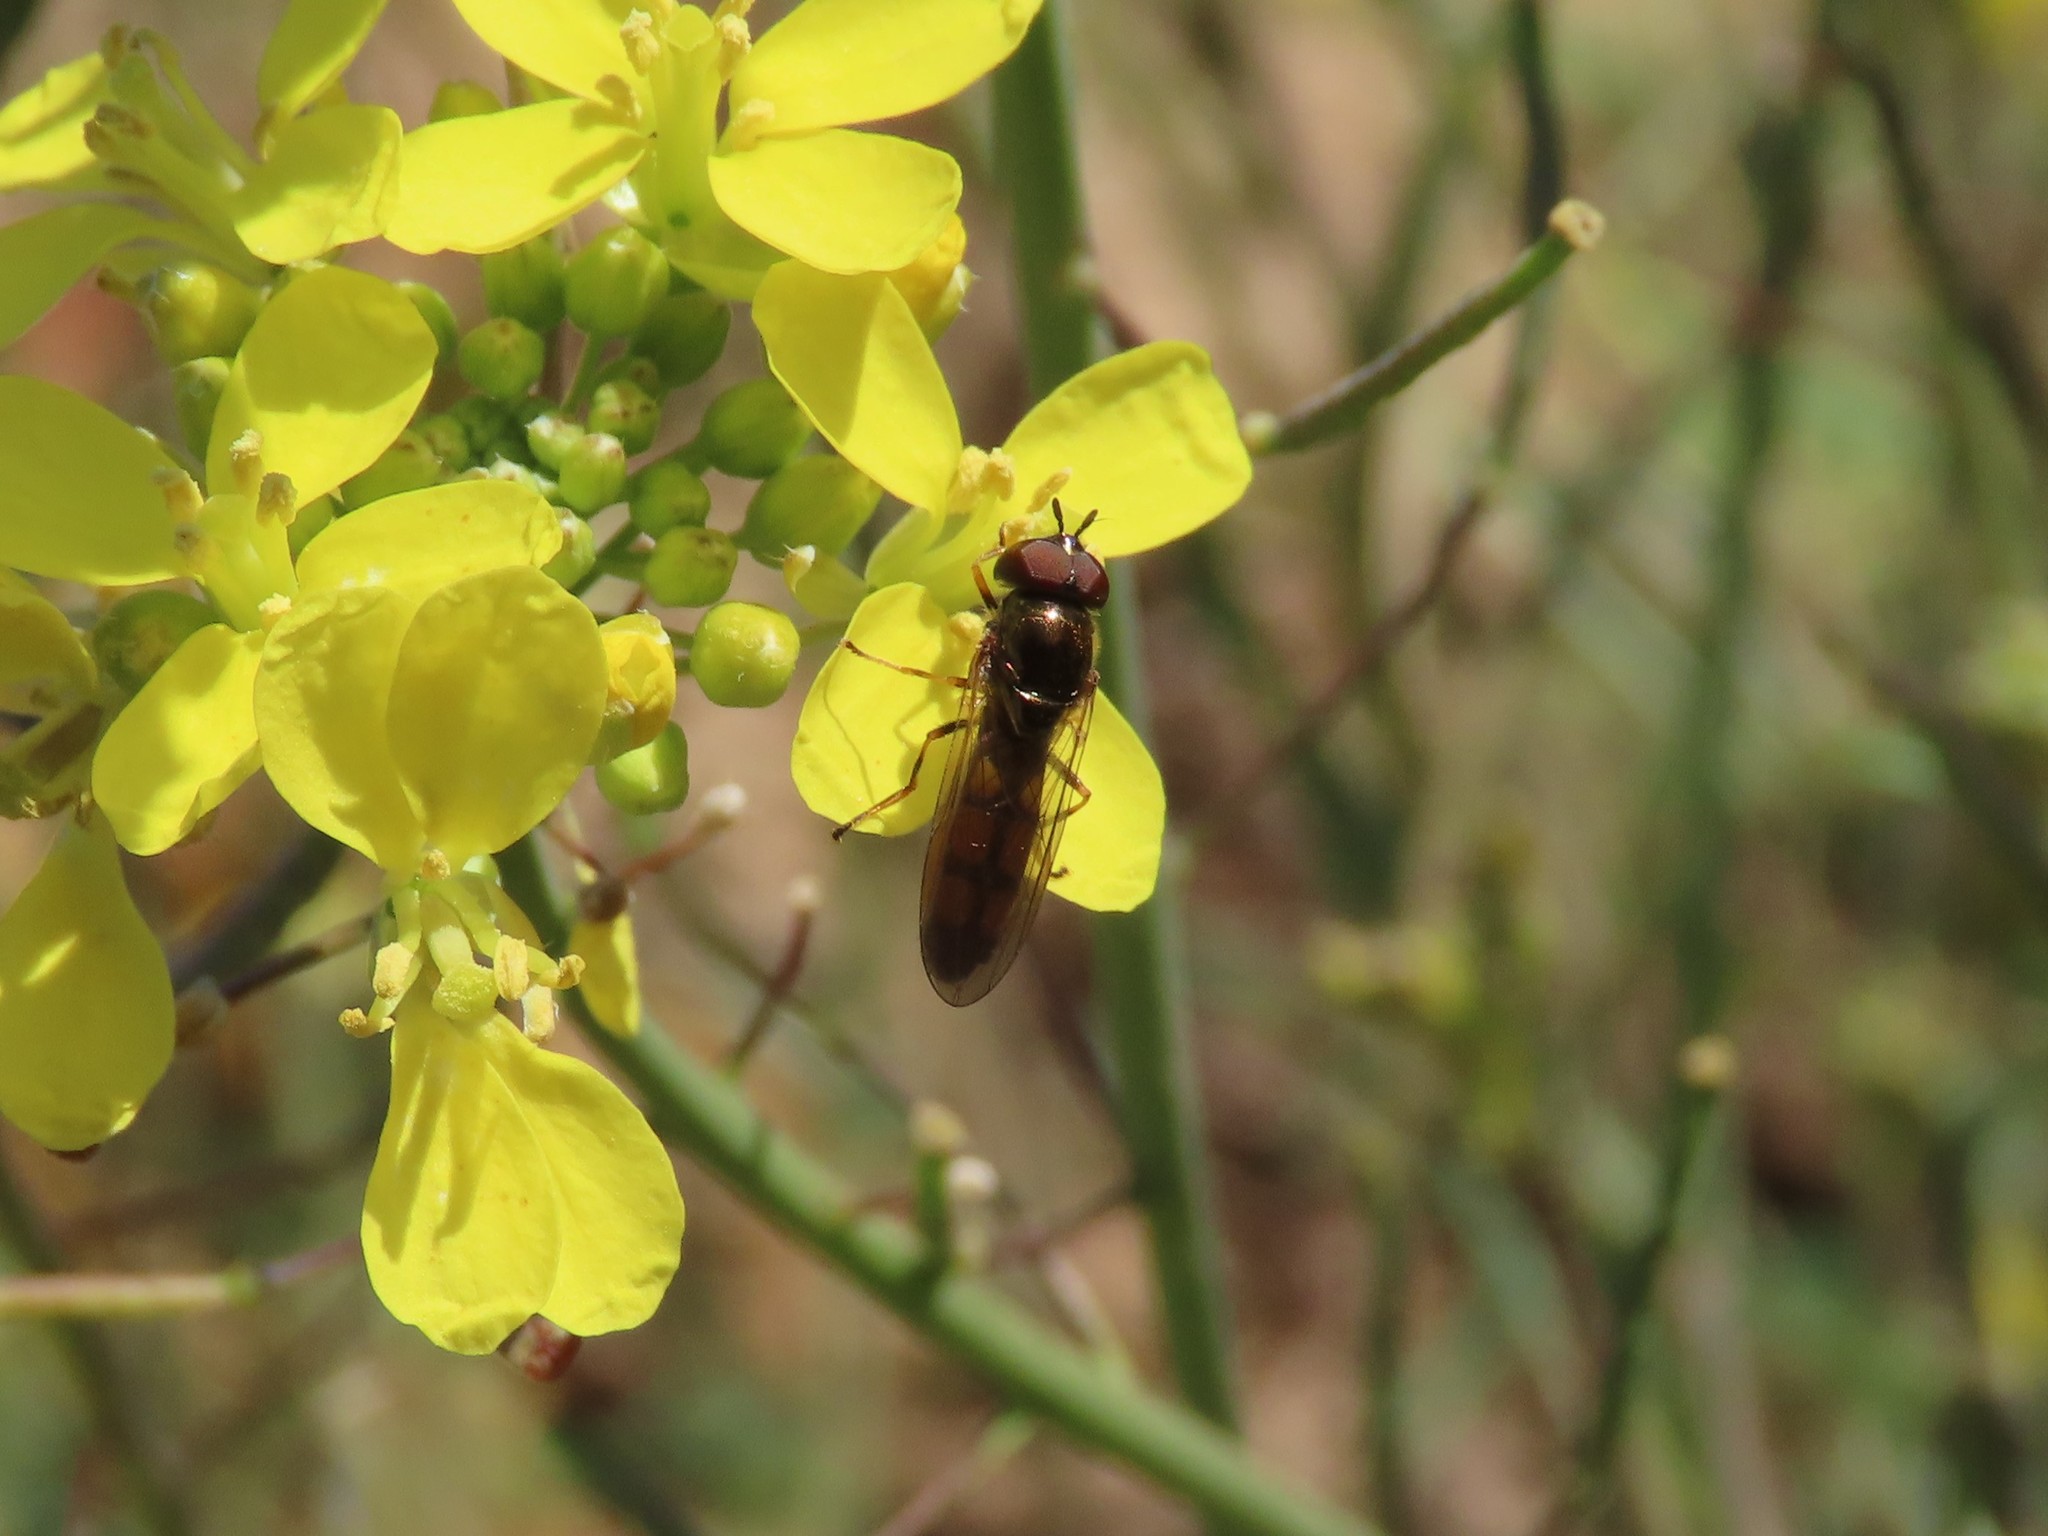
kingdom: Animalia
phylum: Arthropoda
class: Insecta
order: Diptera
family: Syrphidae
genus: Melanostoma
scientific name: Melanostoma mellina
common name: Hover fly
